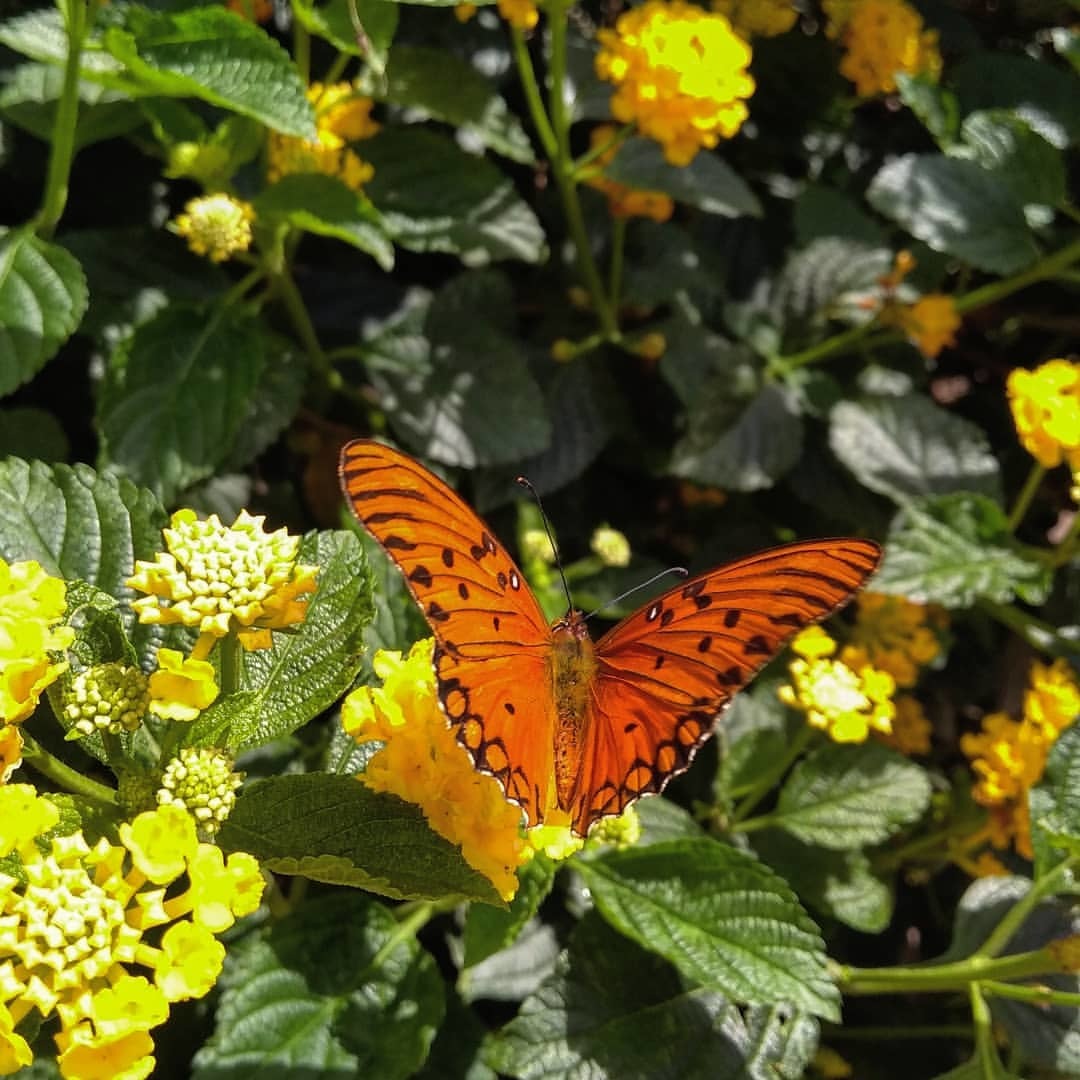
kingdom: Animalia
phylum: Arthropoda
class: Insecta
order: Lepidoptera
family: Nymphalidae
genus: Dione
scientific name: Dione vanillae
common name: Gulf fritillary
